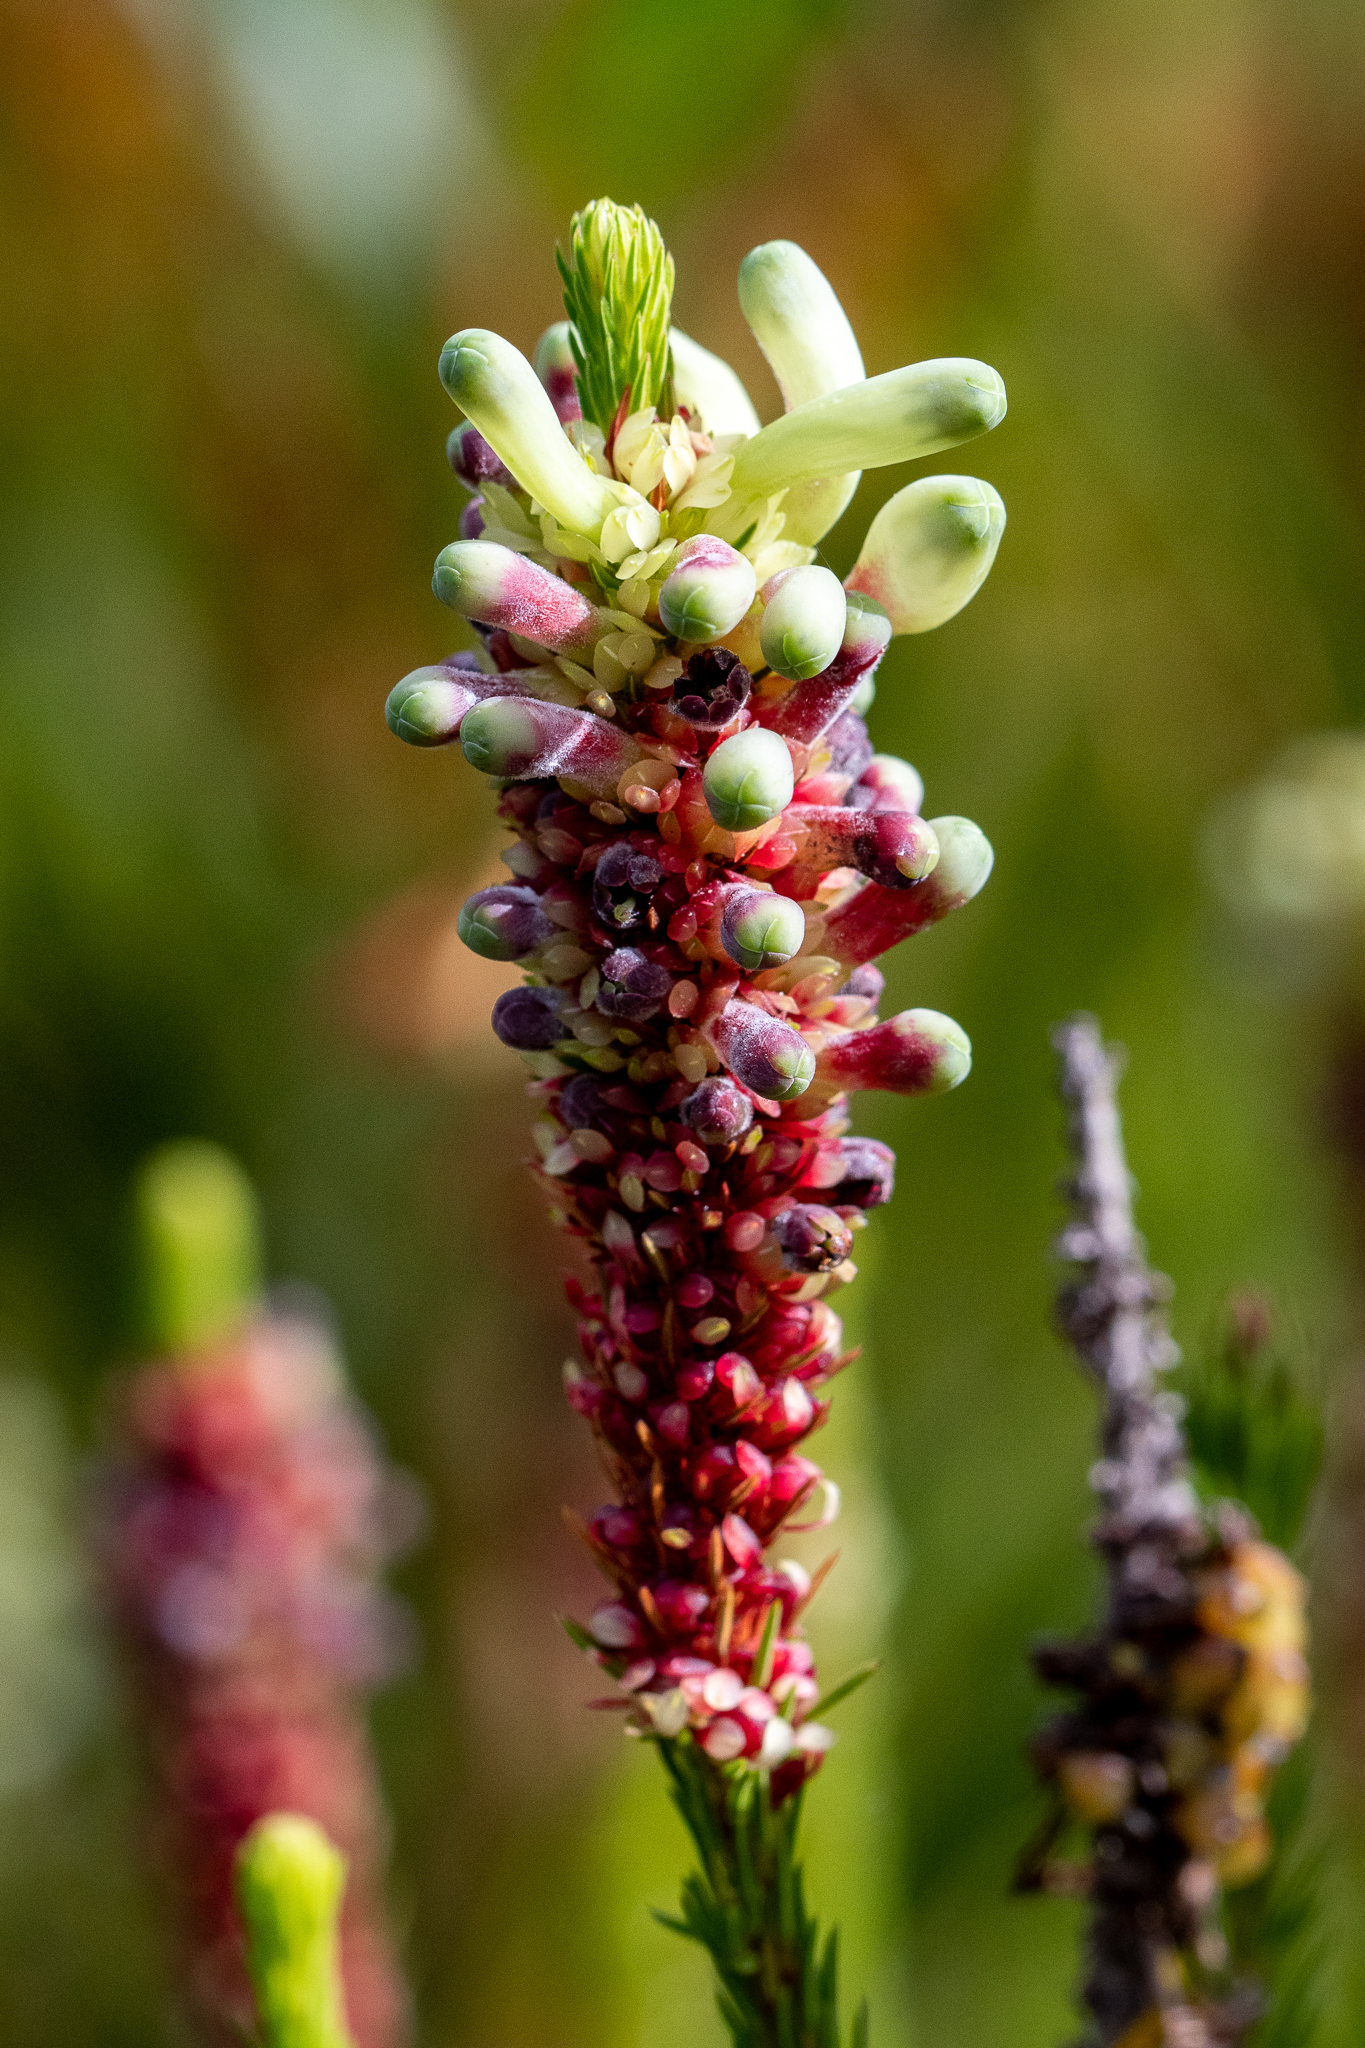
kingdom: Plantae
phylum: Tracheophyta
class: Magnoliopsida
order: Ericales
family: Ericaceae
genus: Erica
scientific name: Erica sessiliflora
